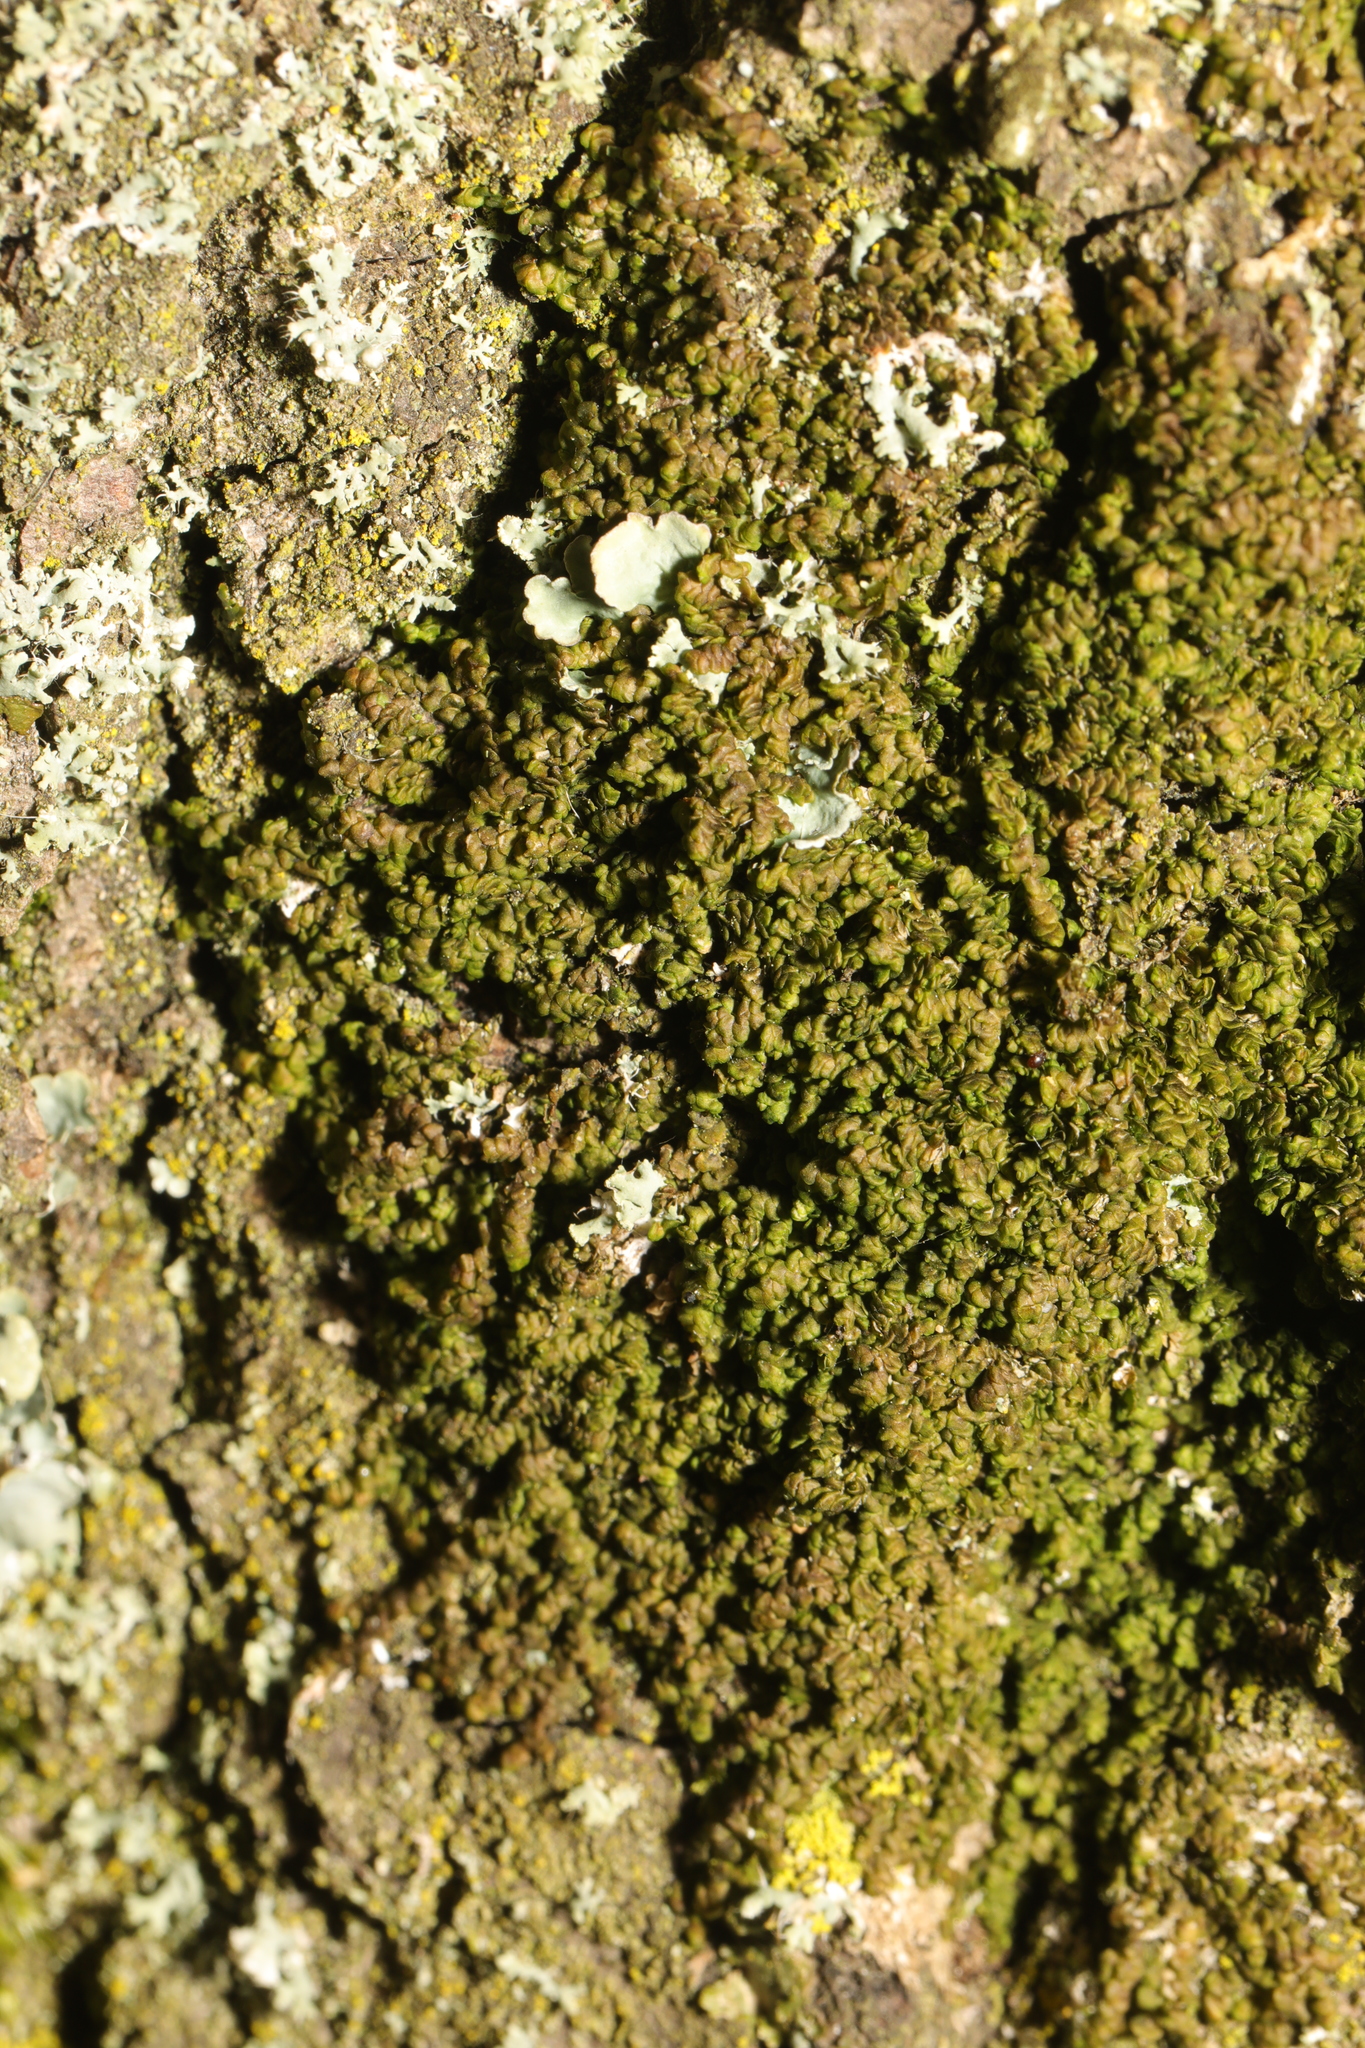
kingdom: Plantae
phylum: Marchantiophyta
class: Jungermanniopsida
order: Porellales
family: Frullaniaceae
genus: Frullania
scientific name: Frullania dilatata
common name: Dilated scalewort
